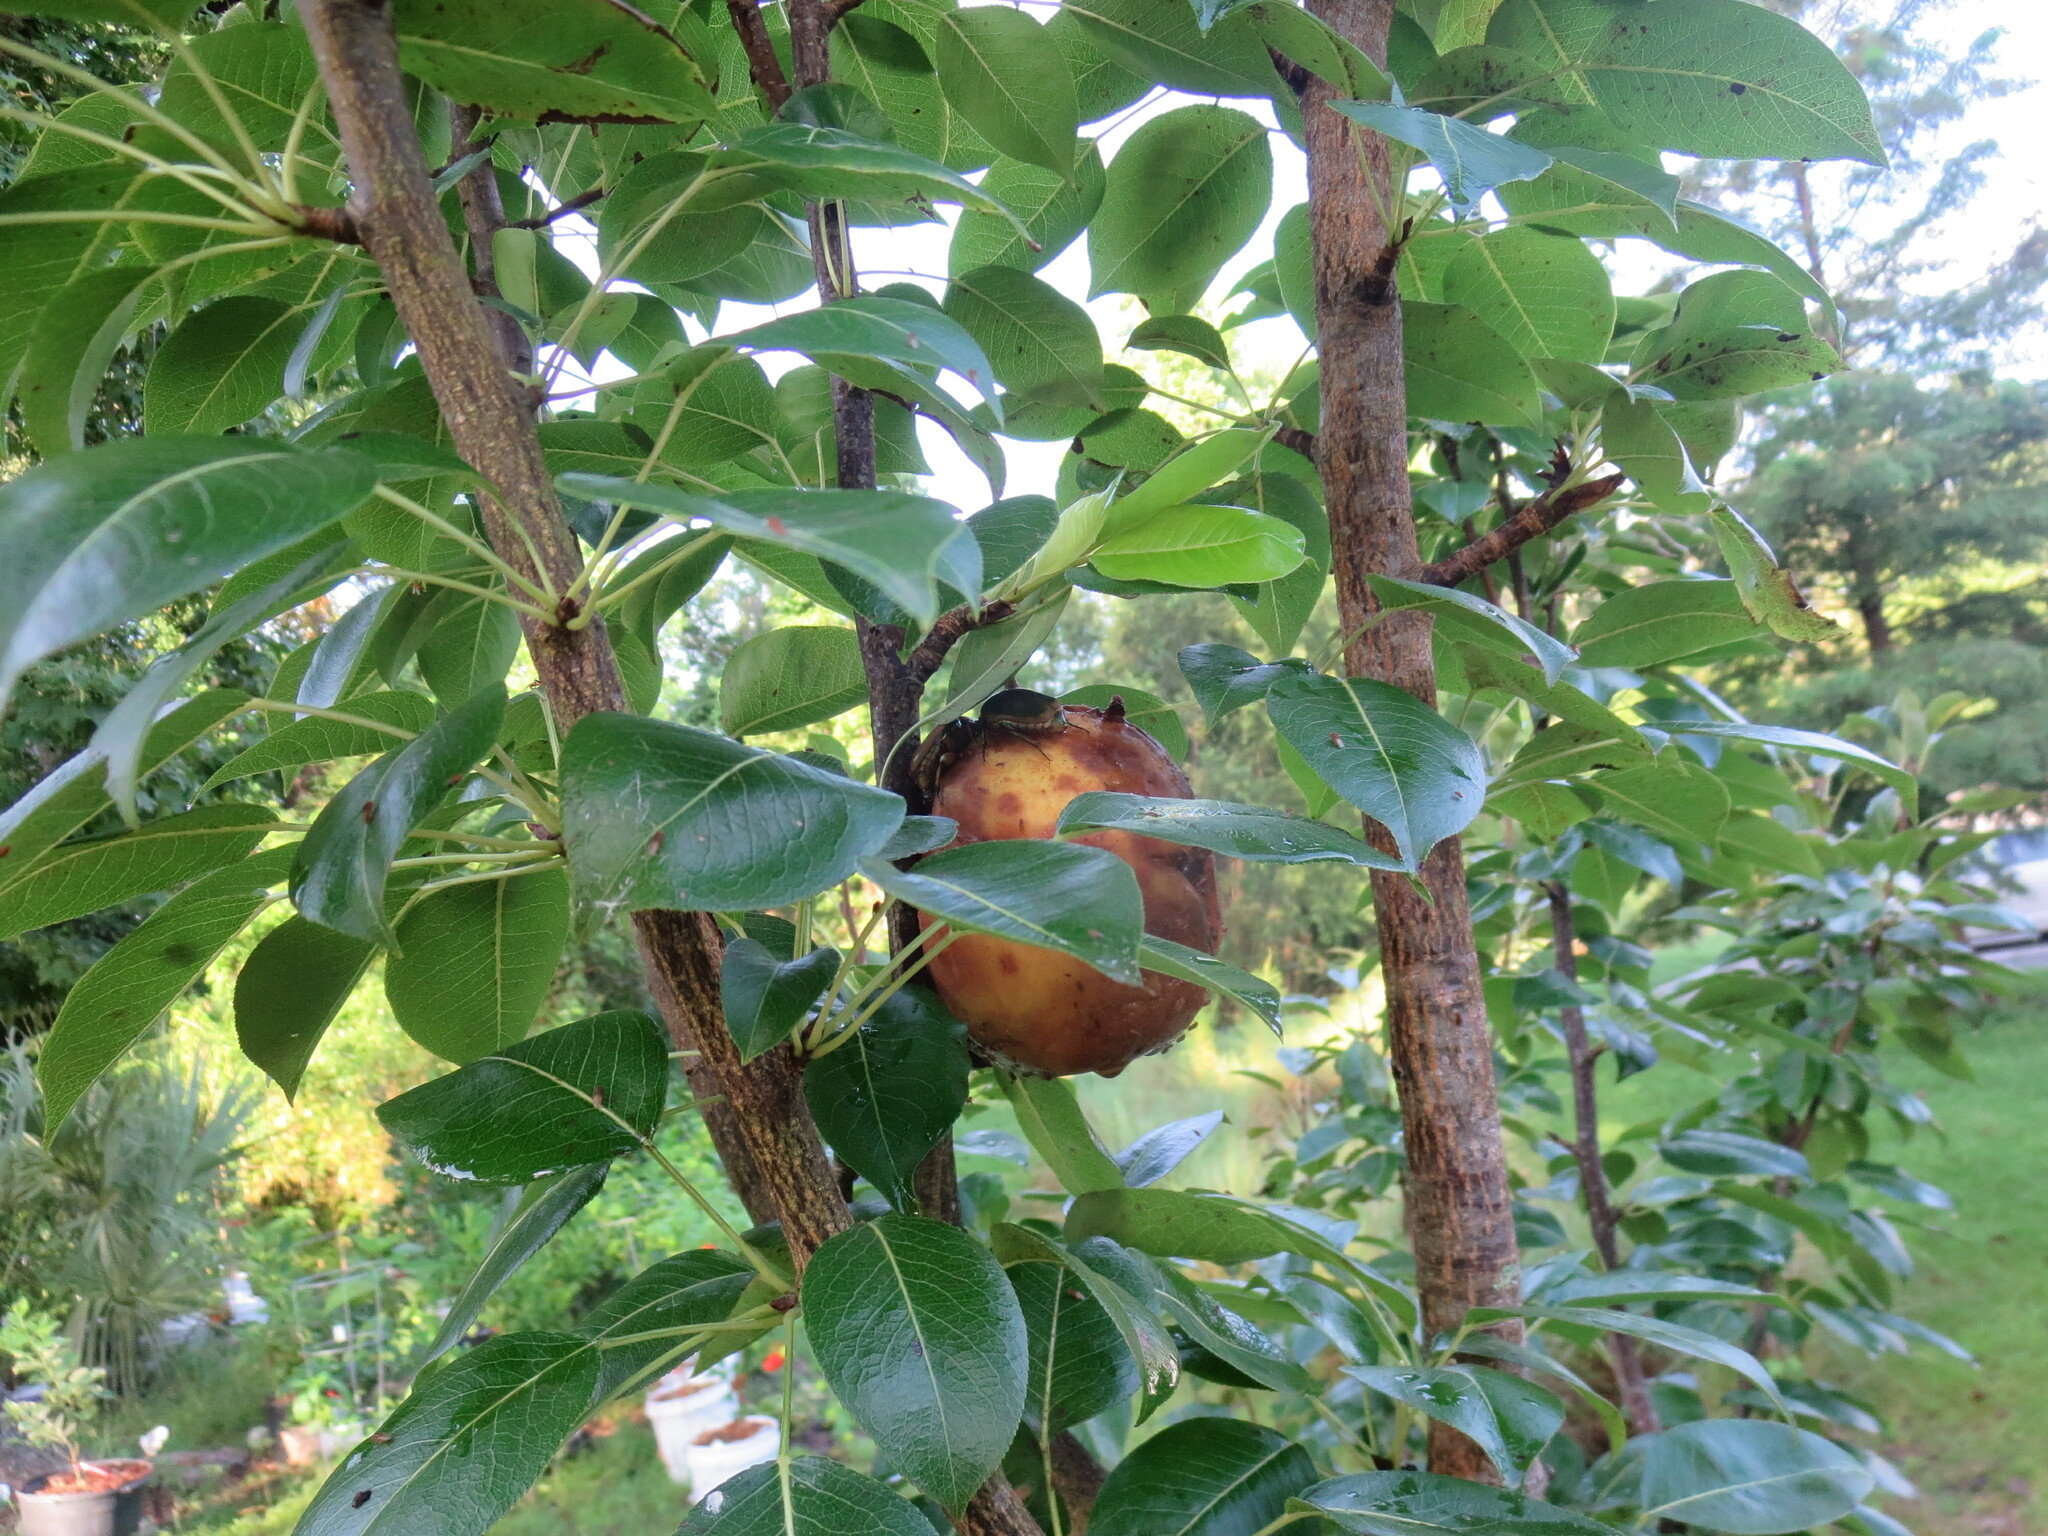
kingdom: Animalia
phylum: Arthropoda
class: Insecta
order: Coleoptera
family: Scarabaeidae
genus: Cotinis
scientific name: Cotinis nitida
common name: Common green june beetle
